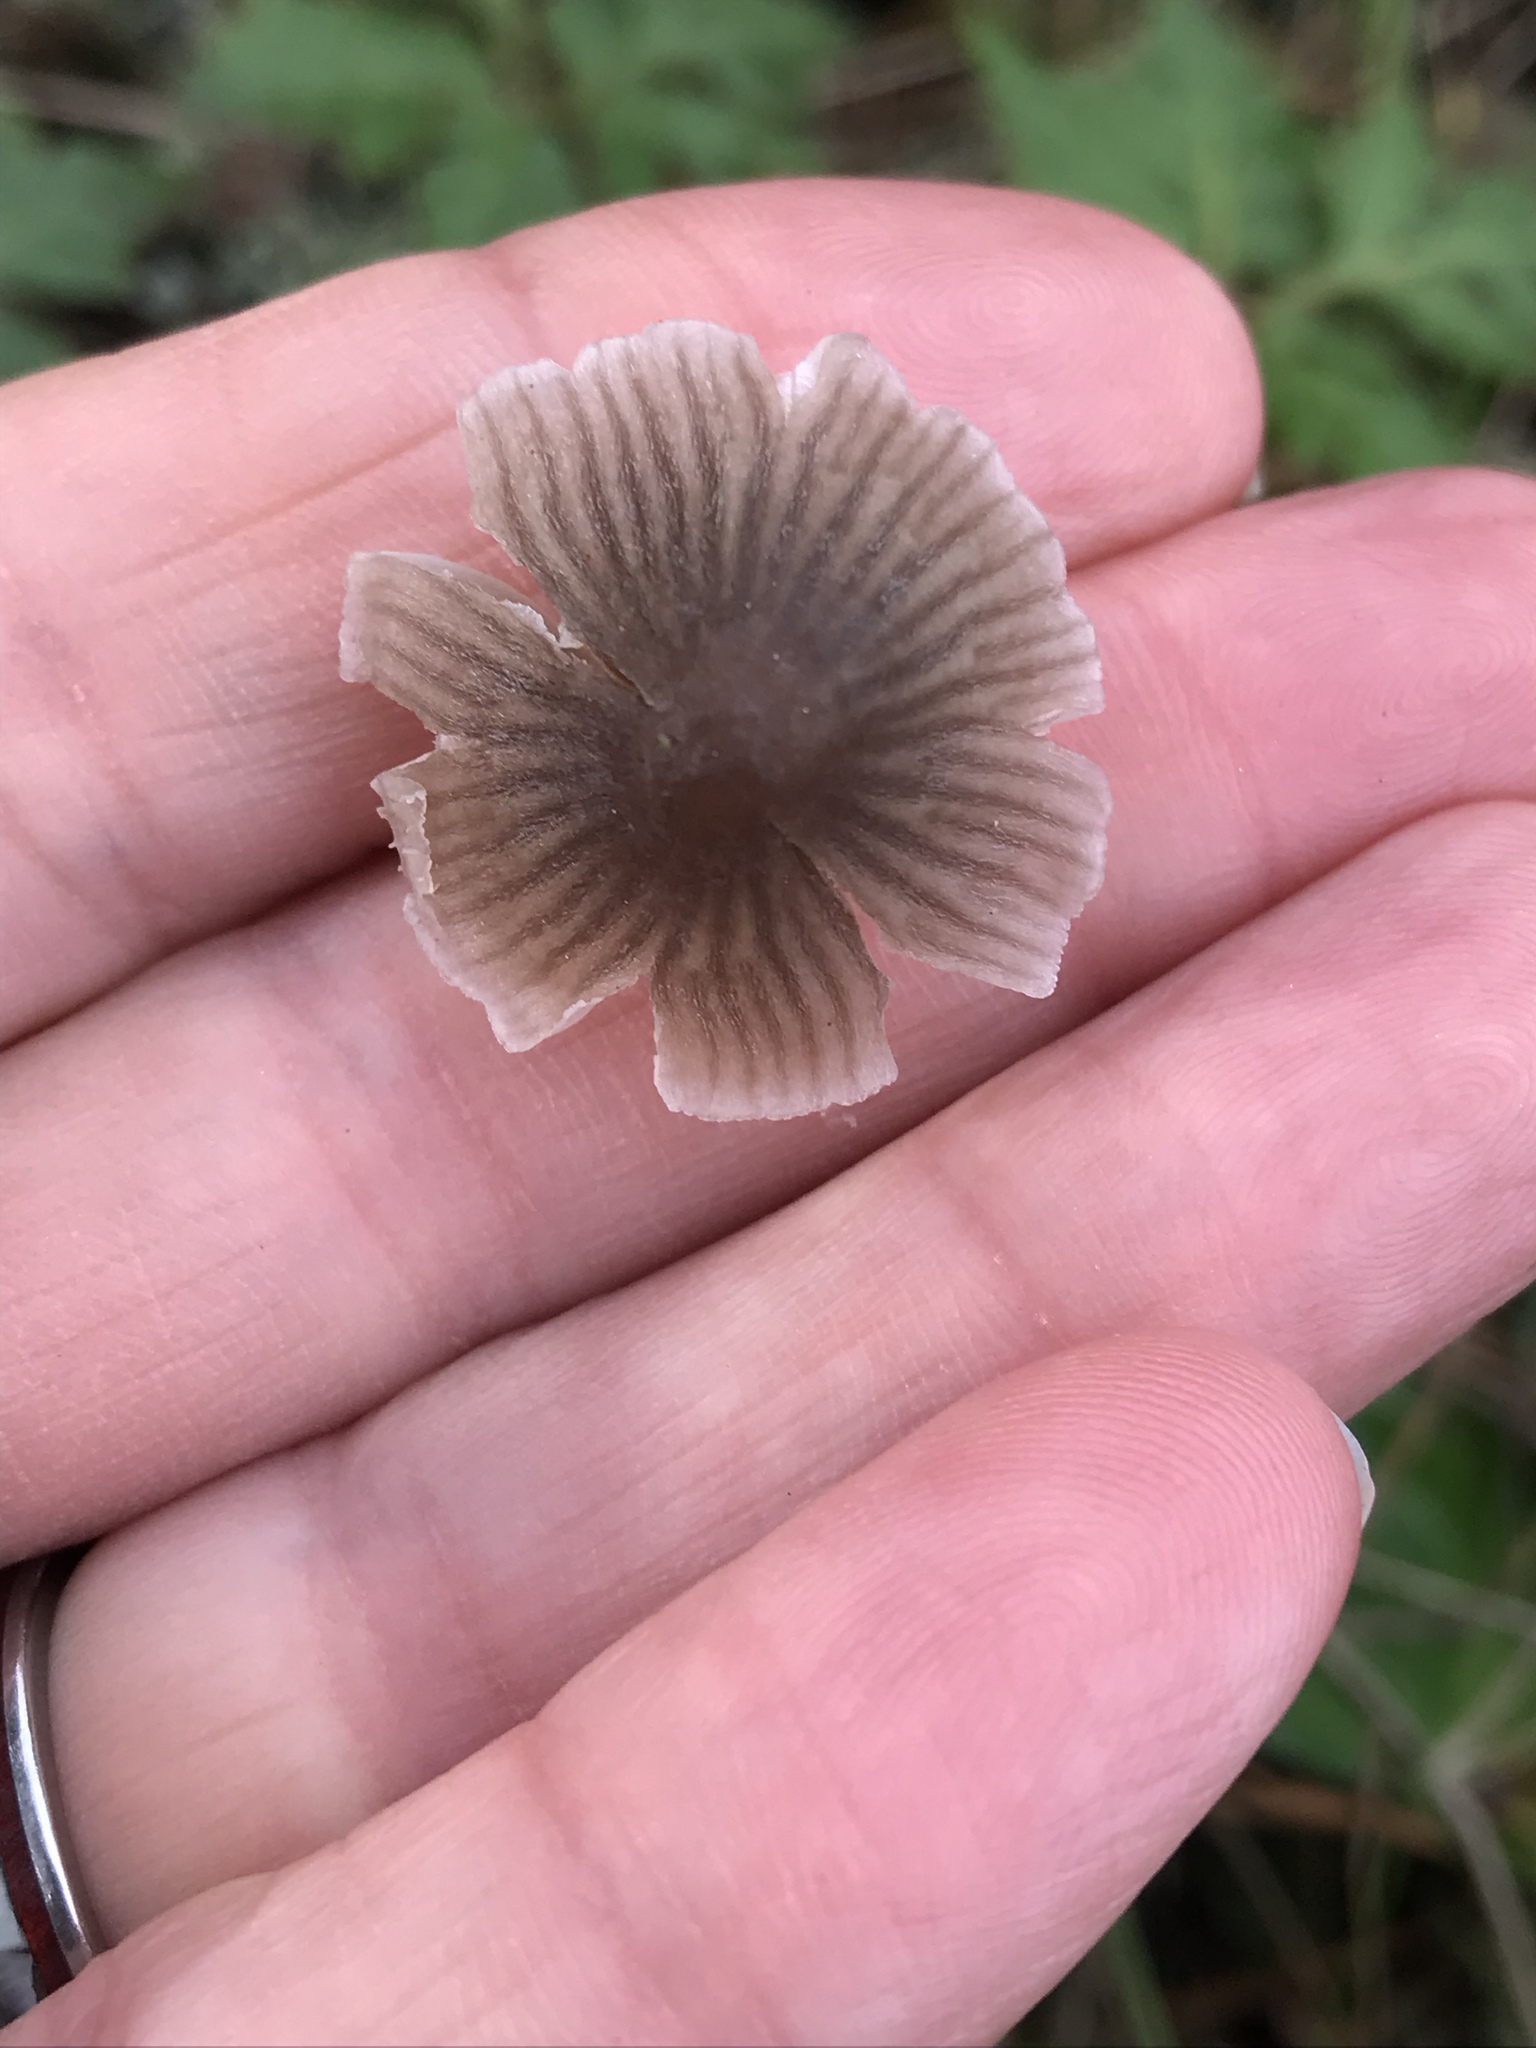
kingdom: Fungi
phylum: Basidiomycota
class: Agaricomycetes
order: Agaricales
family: Mycenaceae
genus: Mycena
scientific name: Mycena leptocephala
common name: Nitrous bonnet
